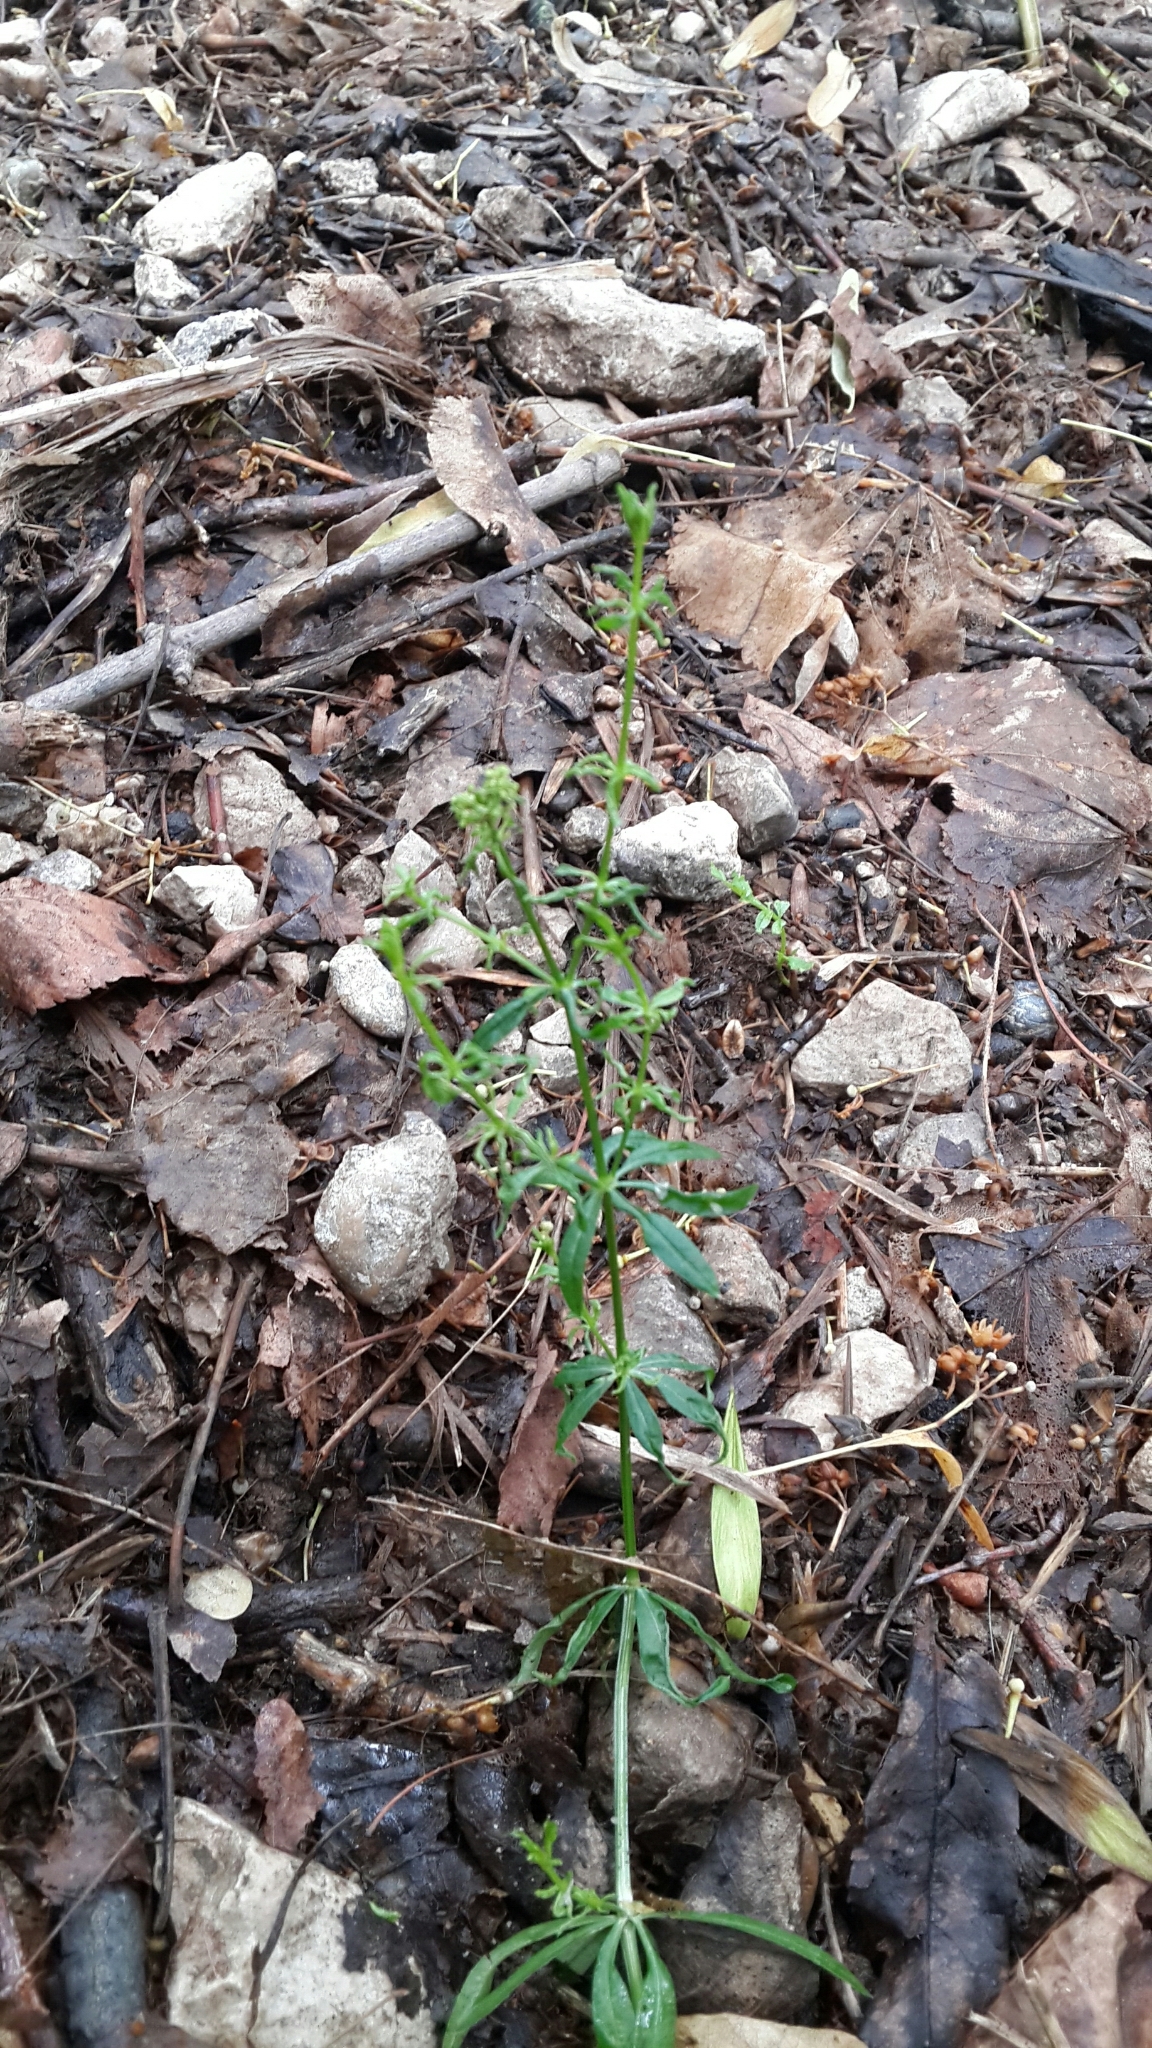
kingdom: Plantae
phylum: Tracheophyta
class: Magnoliopsida
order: Gentianales
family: Rubiaceae
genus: Galium
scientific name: Galium mollugo
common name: Hedge bedstraw
